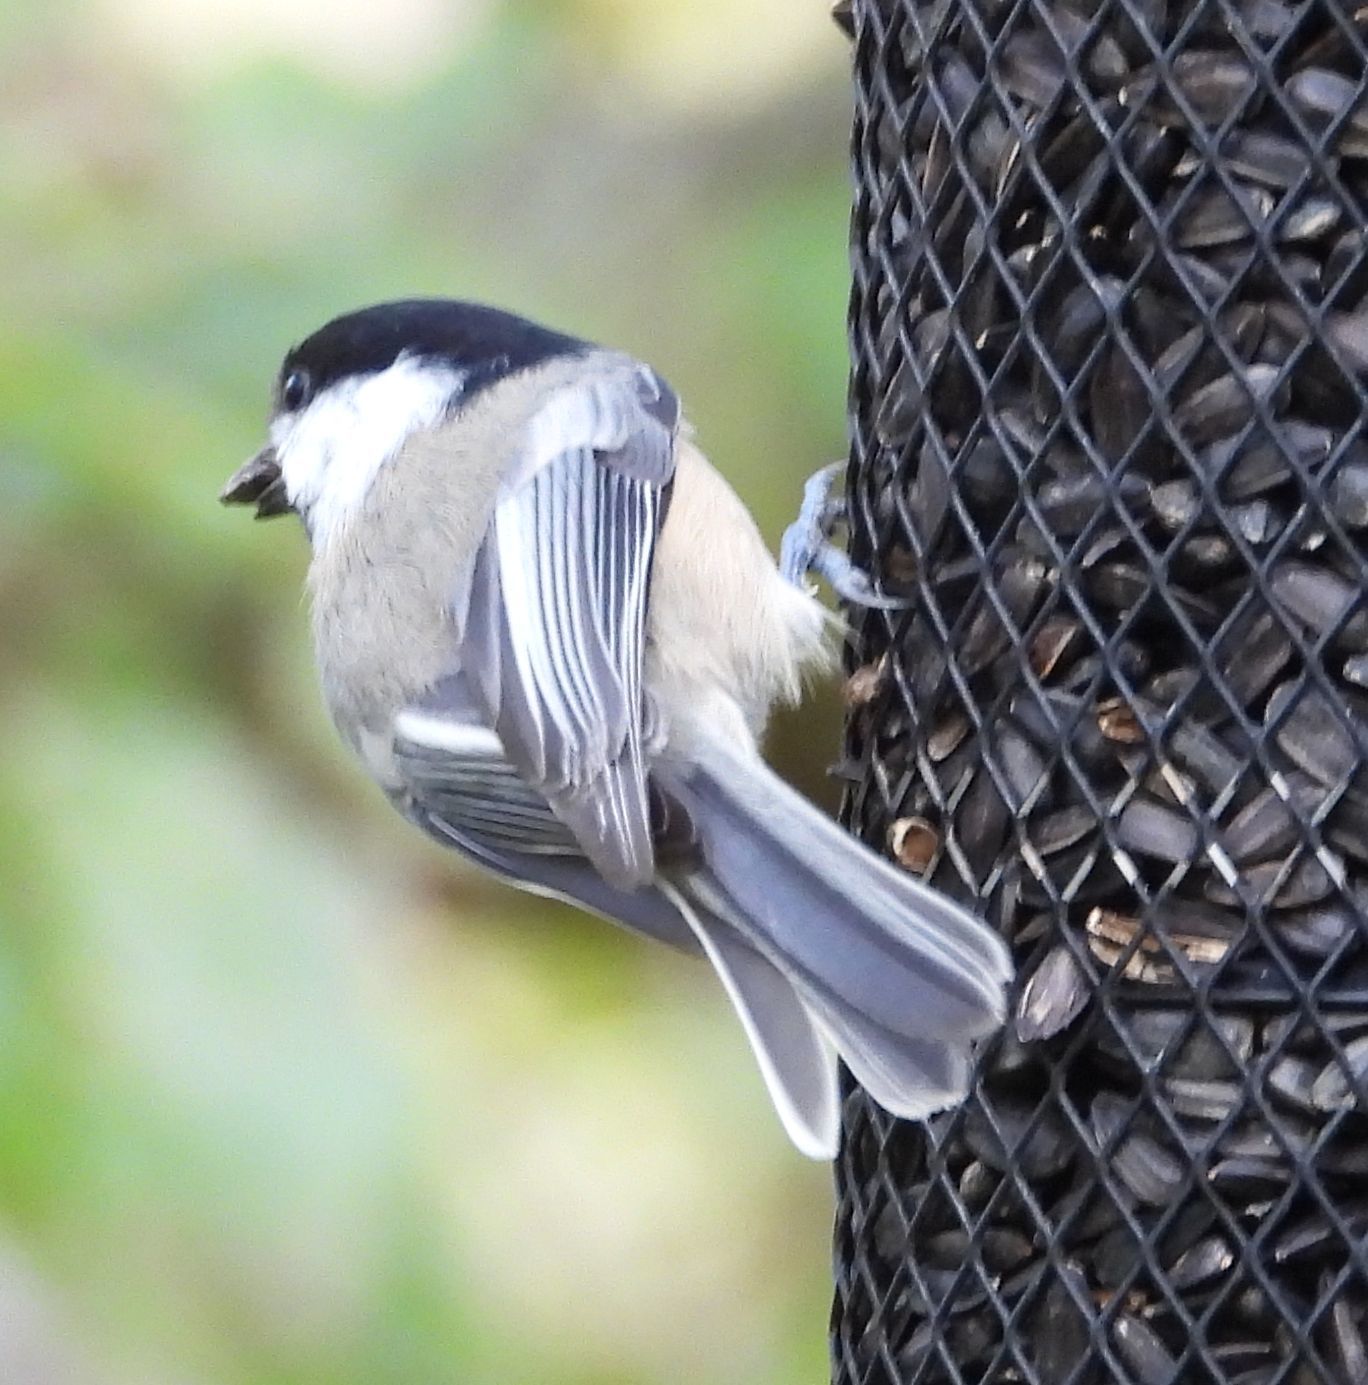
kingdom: Animalia
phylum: Chordata
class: Aves
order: Passeriformes
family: Paridae
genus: Poecile
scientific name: Poecile atricapillus
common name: Black-capped chickadee
